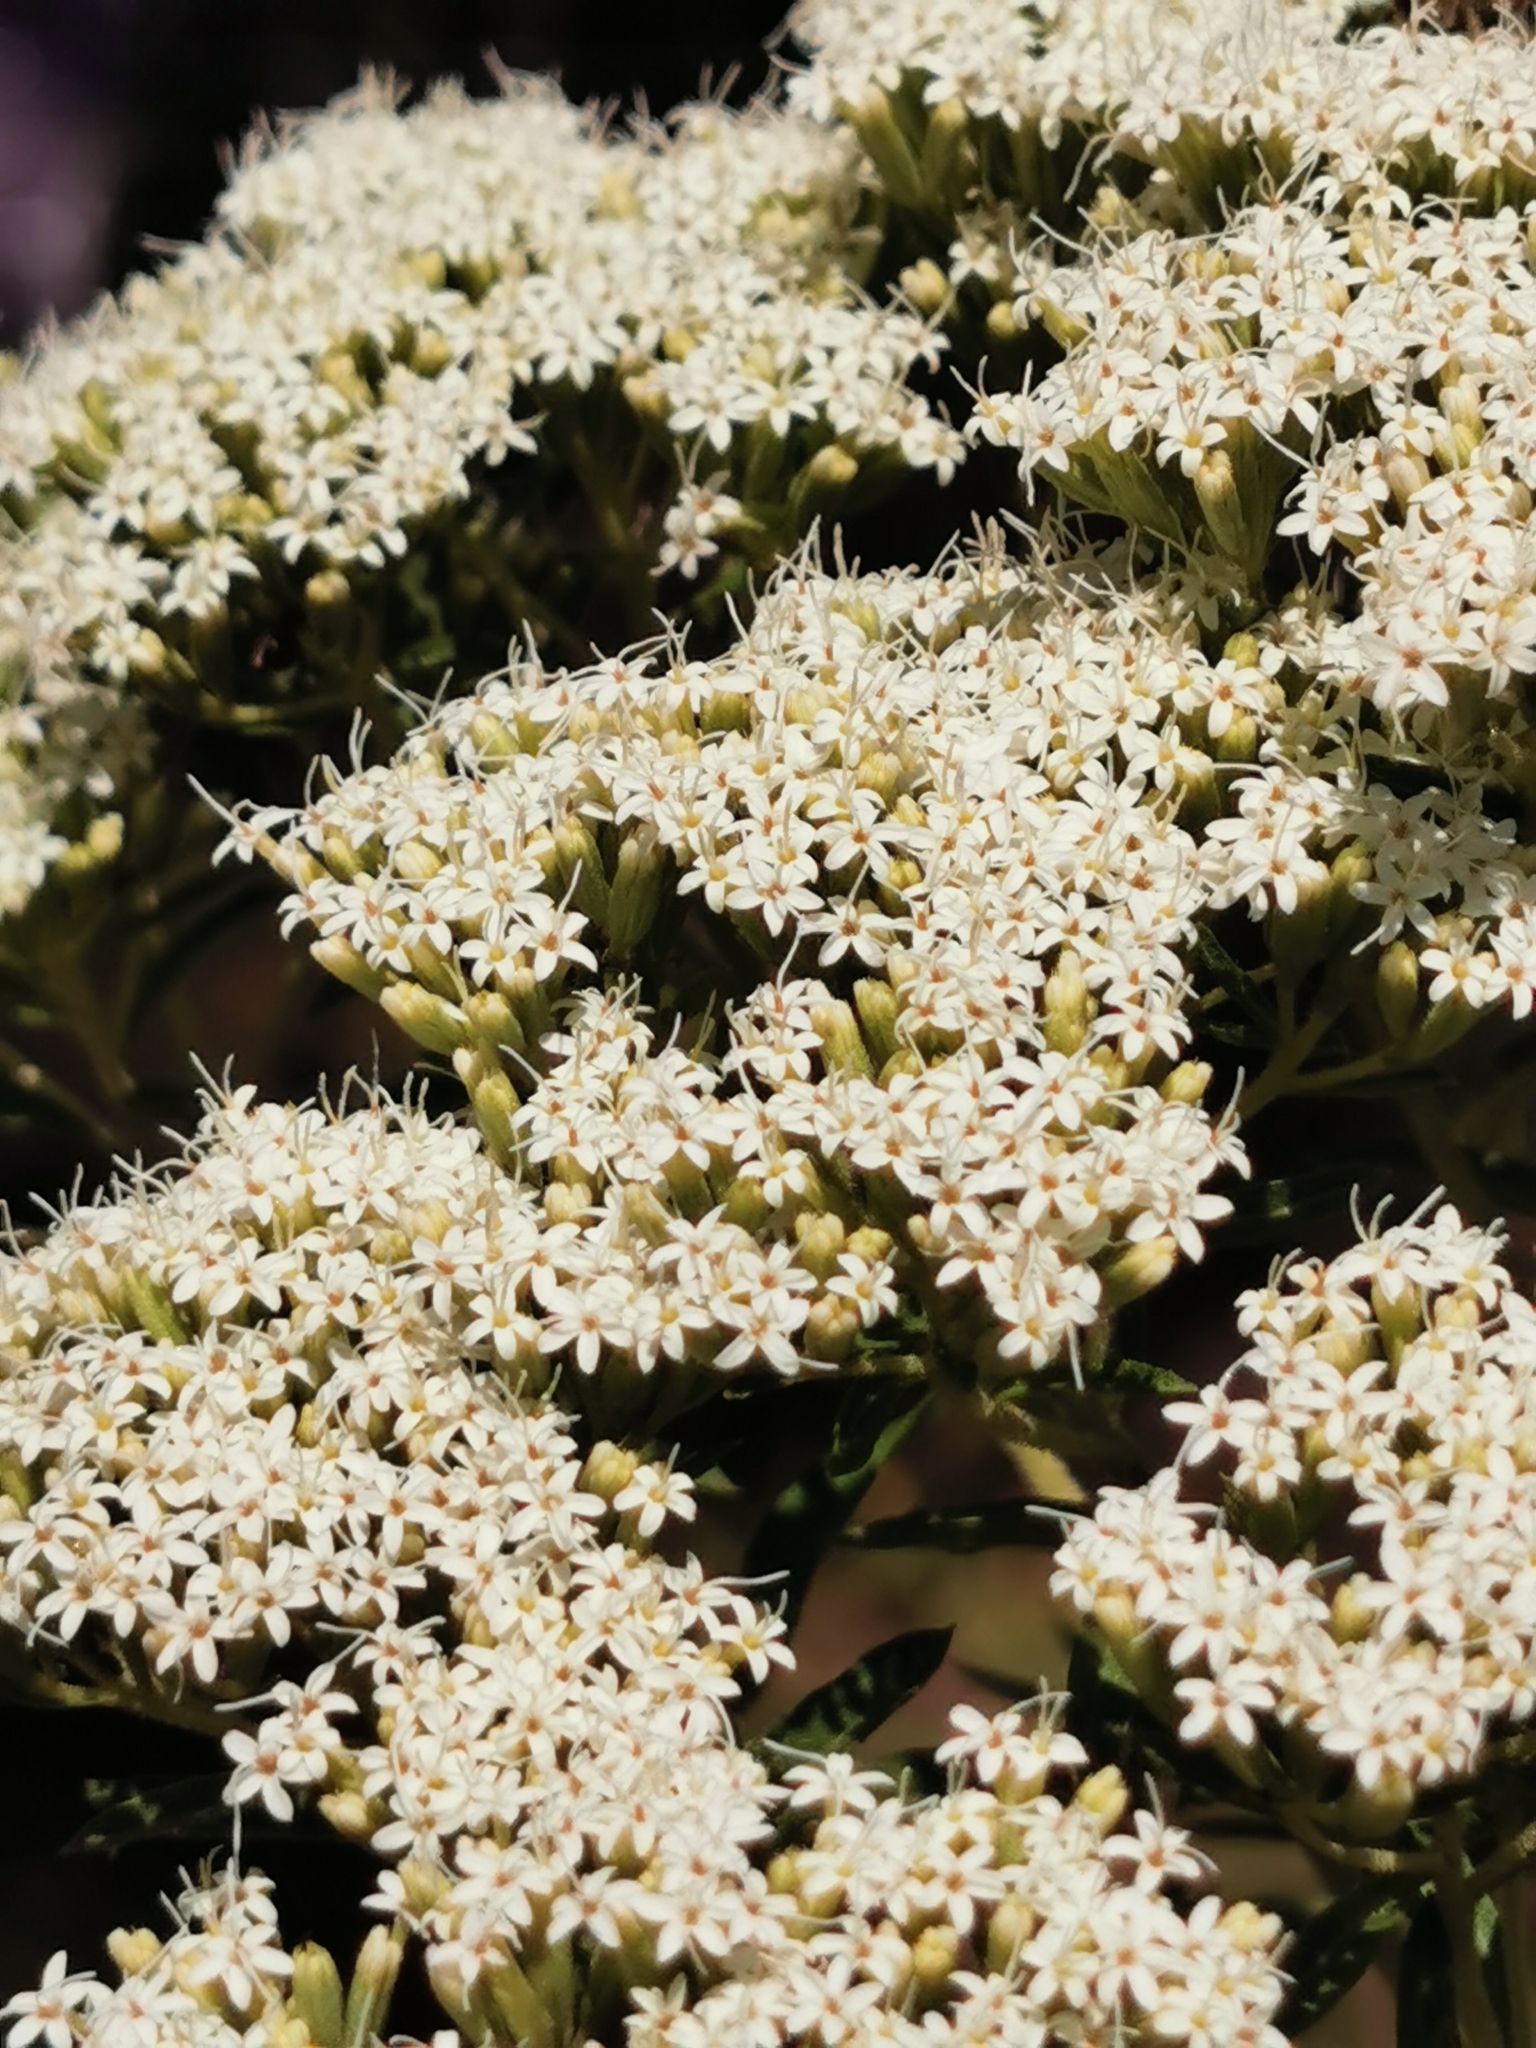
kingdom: Plantae
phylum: Tracheophyta
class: Magnoliopsida
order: Asterales
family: Asteraceae
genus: Stevia
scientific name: Stevia serrata
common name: Sawtooth candyleaf
